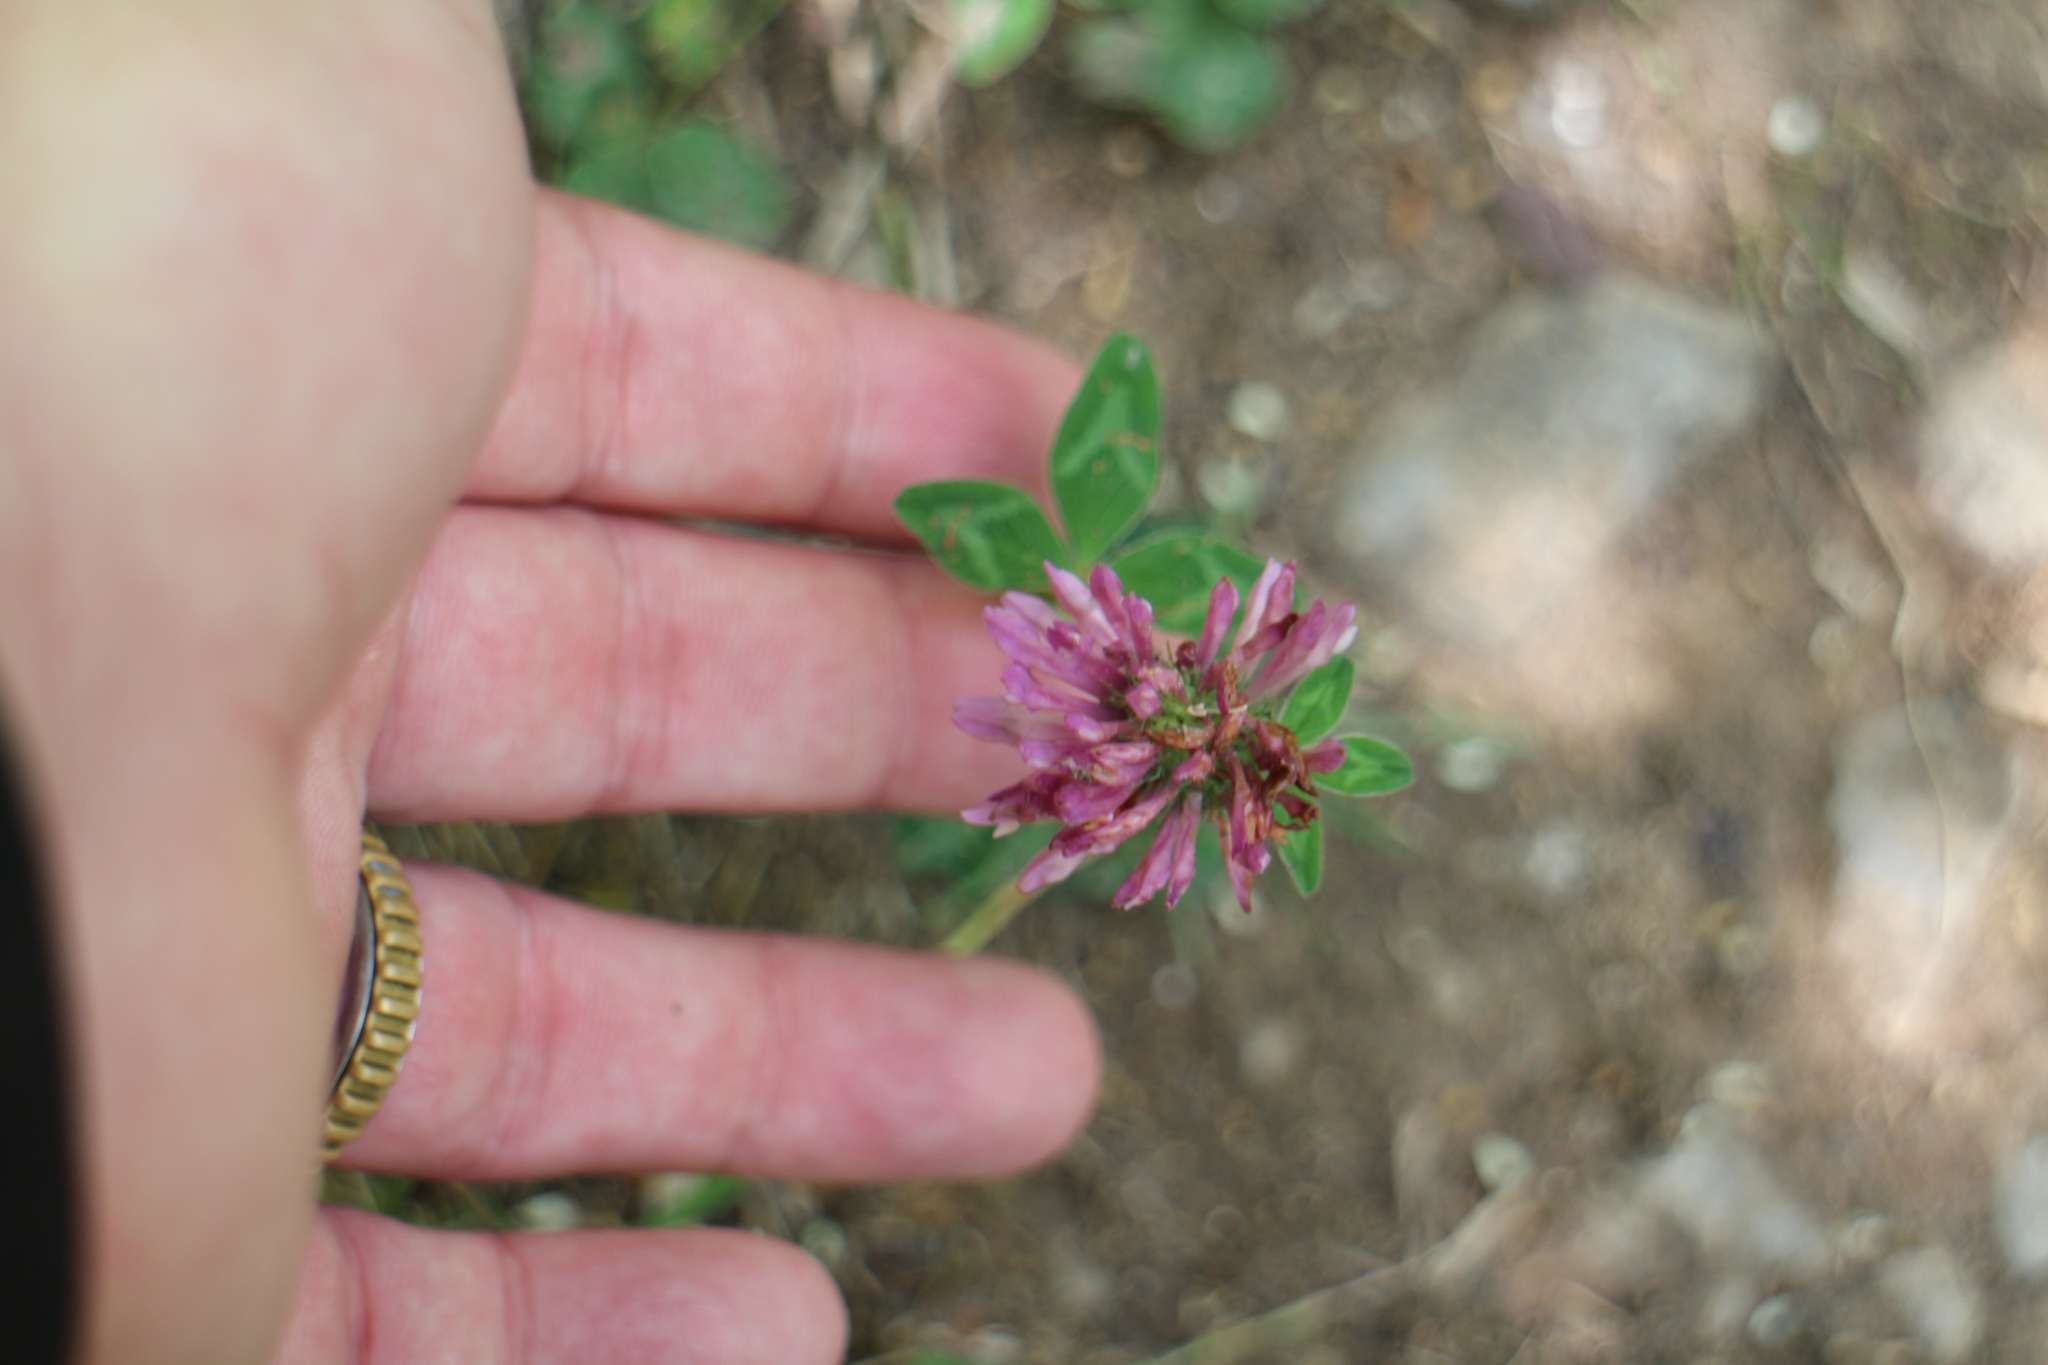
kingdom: Plantae
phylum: Tracheophyta
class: Magnoliopsida
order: Fabales
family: Fabaceae
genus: Trifolium
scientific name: Trifolium pratense
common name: Red clover
